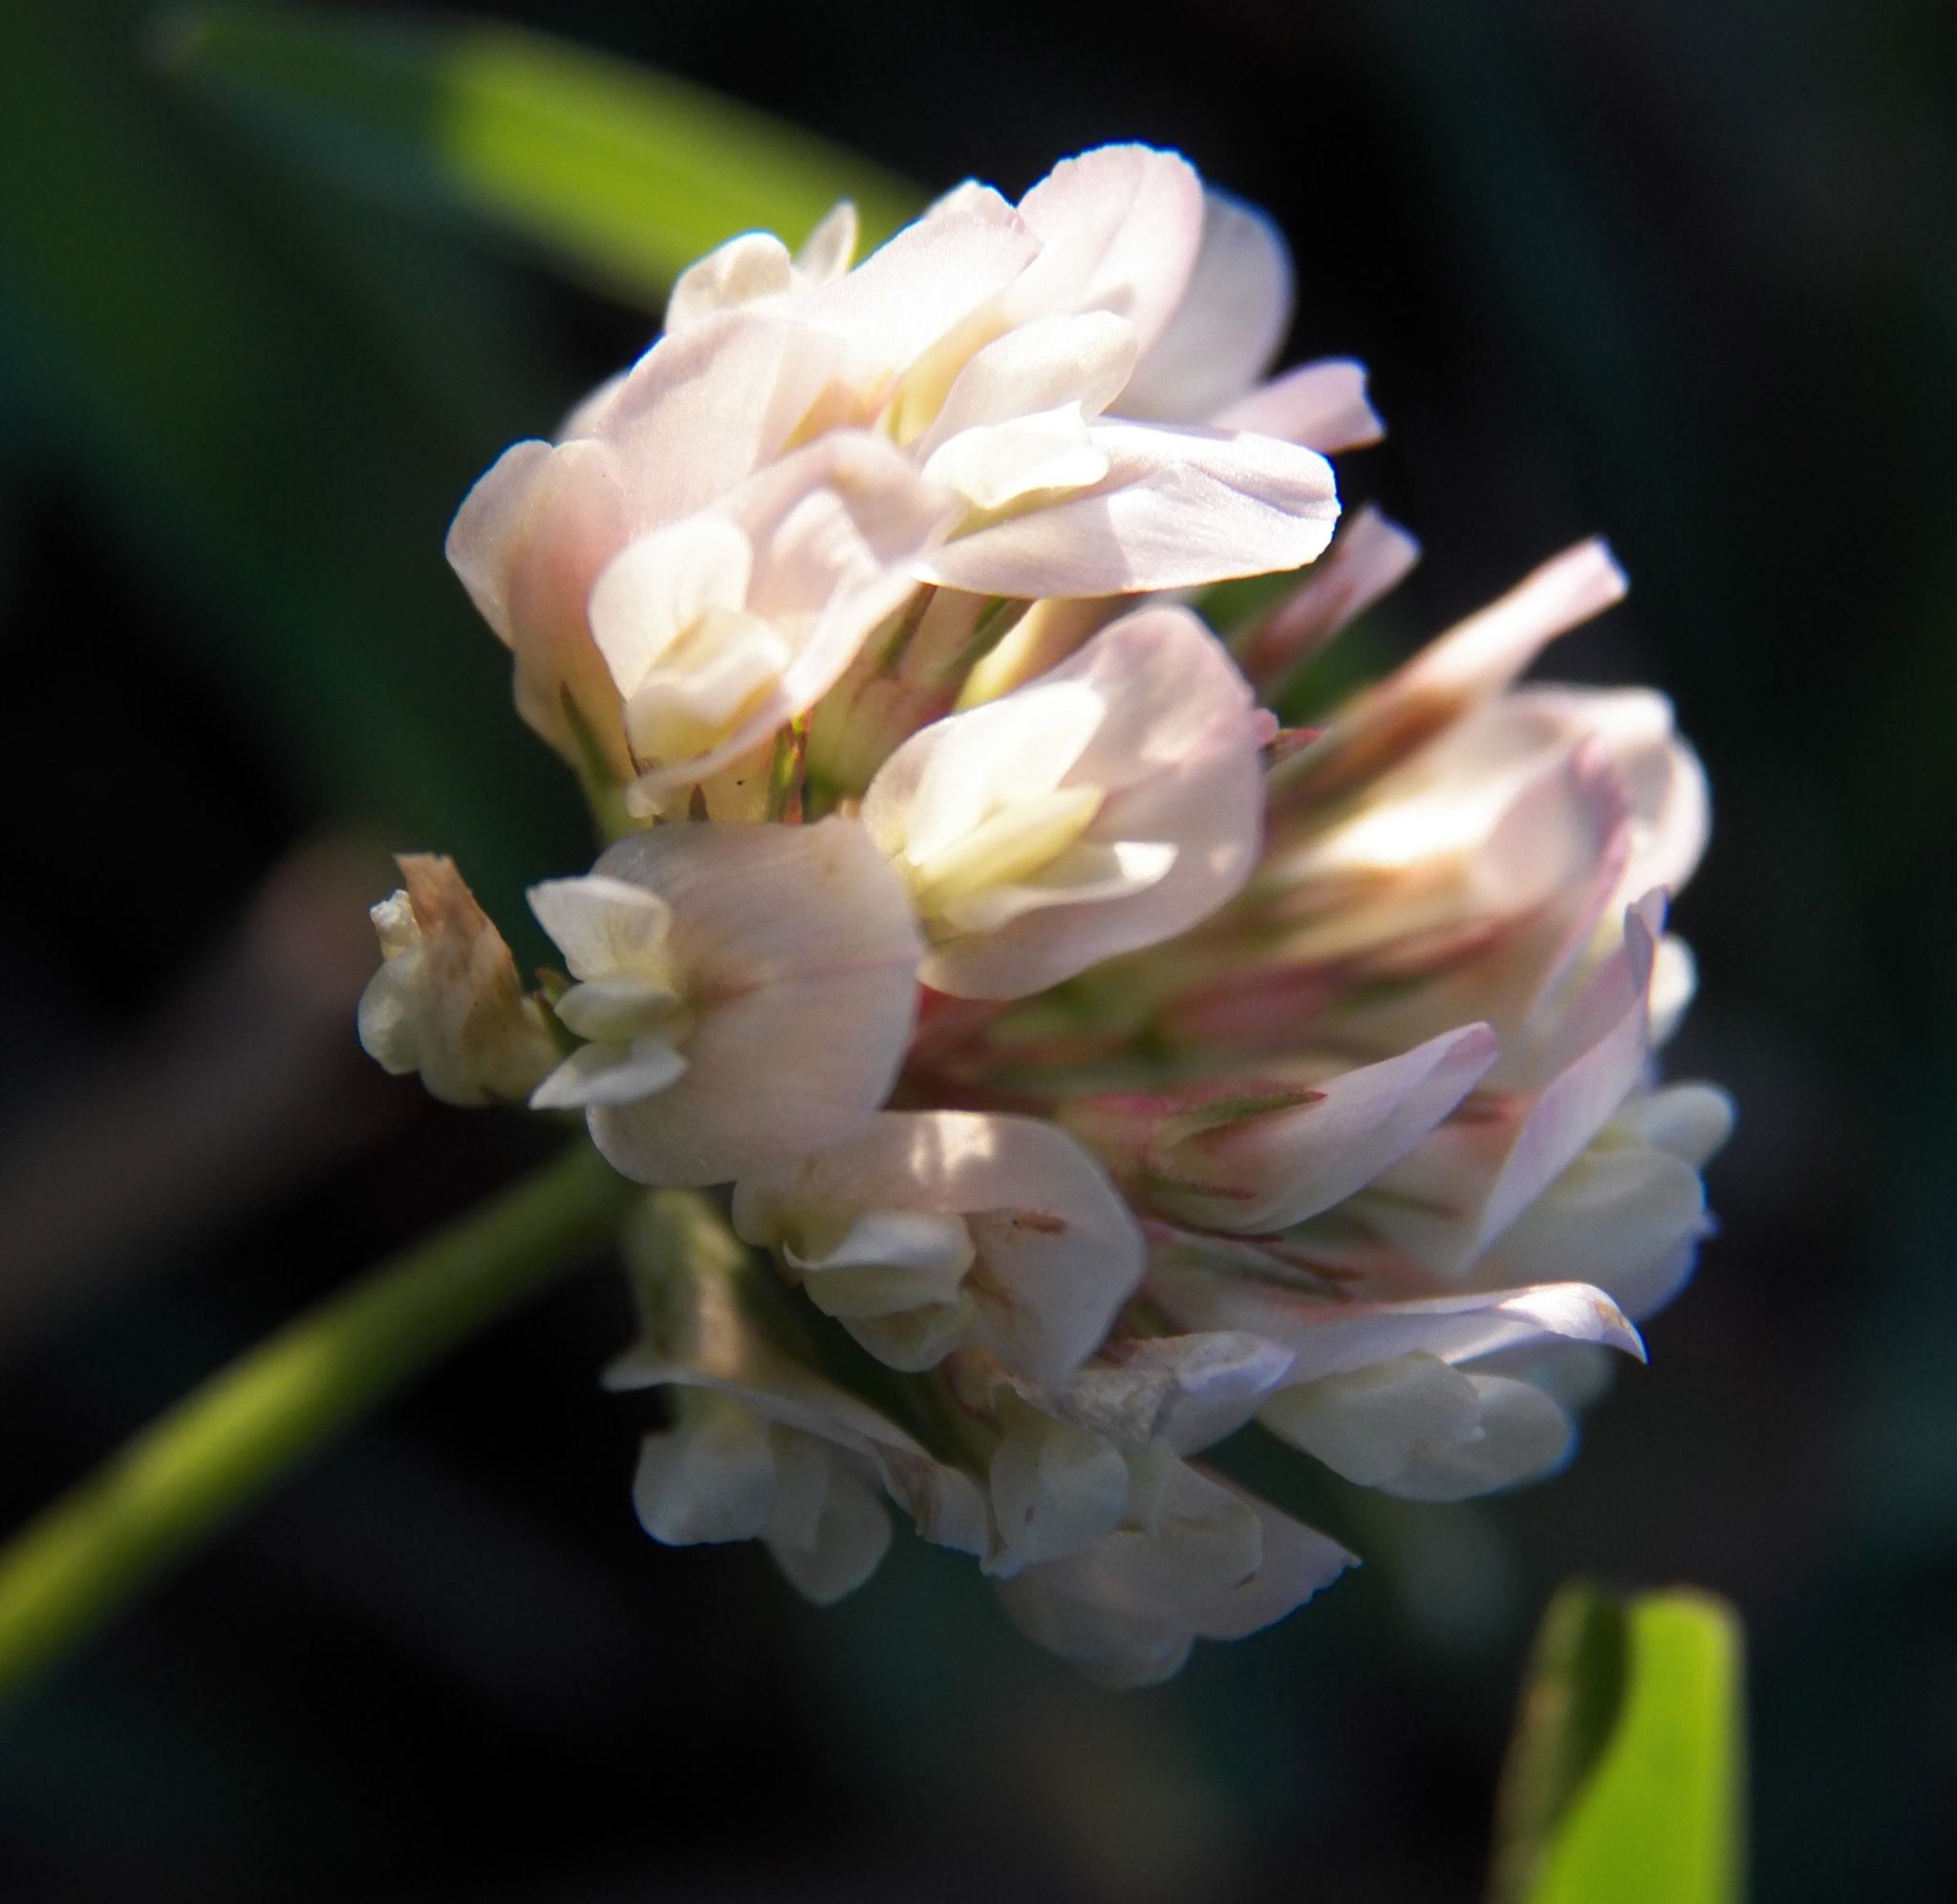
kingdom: Plantae
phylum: Tracheophyta
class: Magnoliopsida
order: Fabales
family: Fabaceae
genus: Trifolium
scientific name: Trifolium repens
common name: White clover
